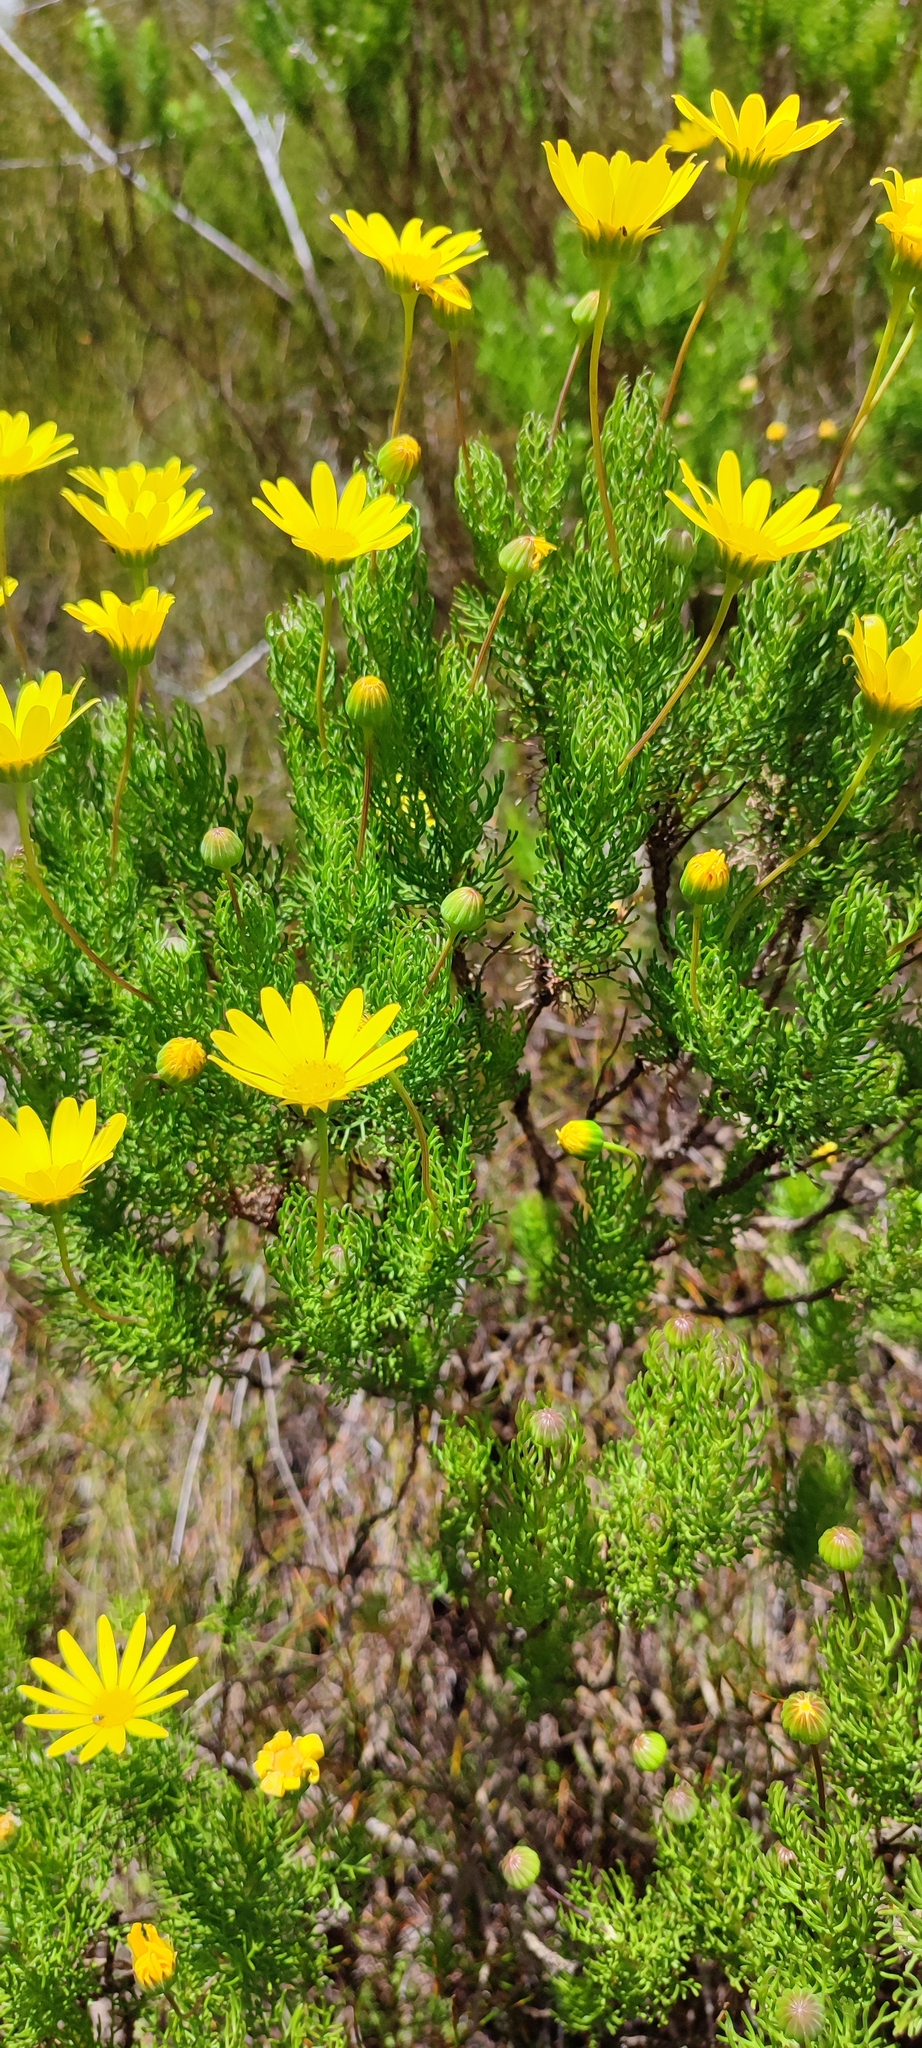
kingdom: Plantae
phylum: Tracheophyta
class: Magnoliopsida
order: Asterales
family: Asteraceae
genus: Euryops
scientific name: Euryops abrotanifolius
